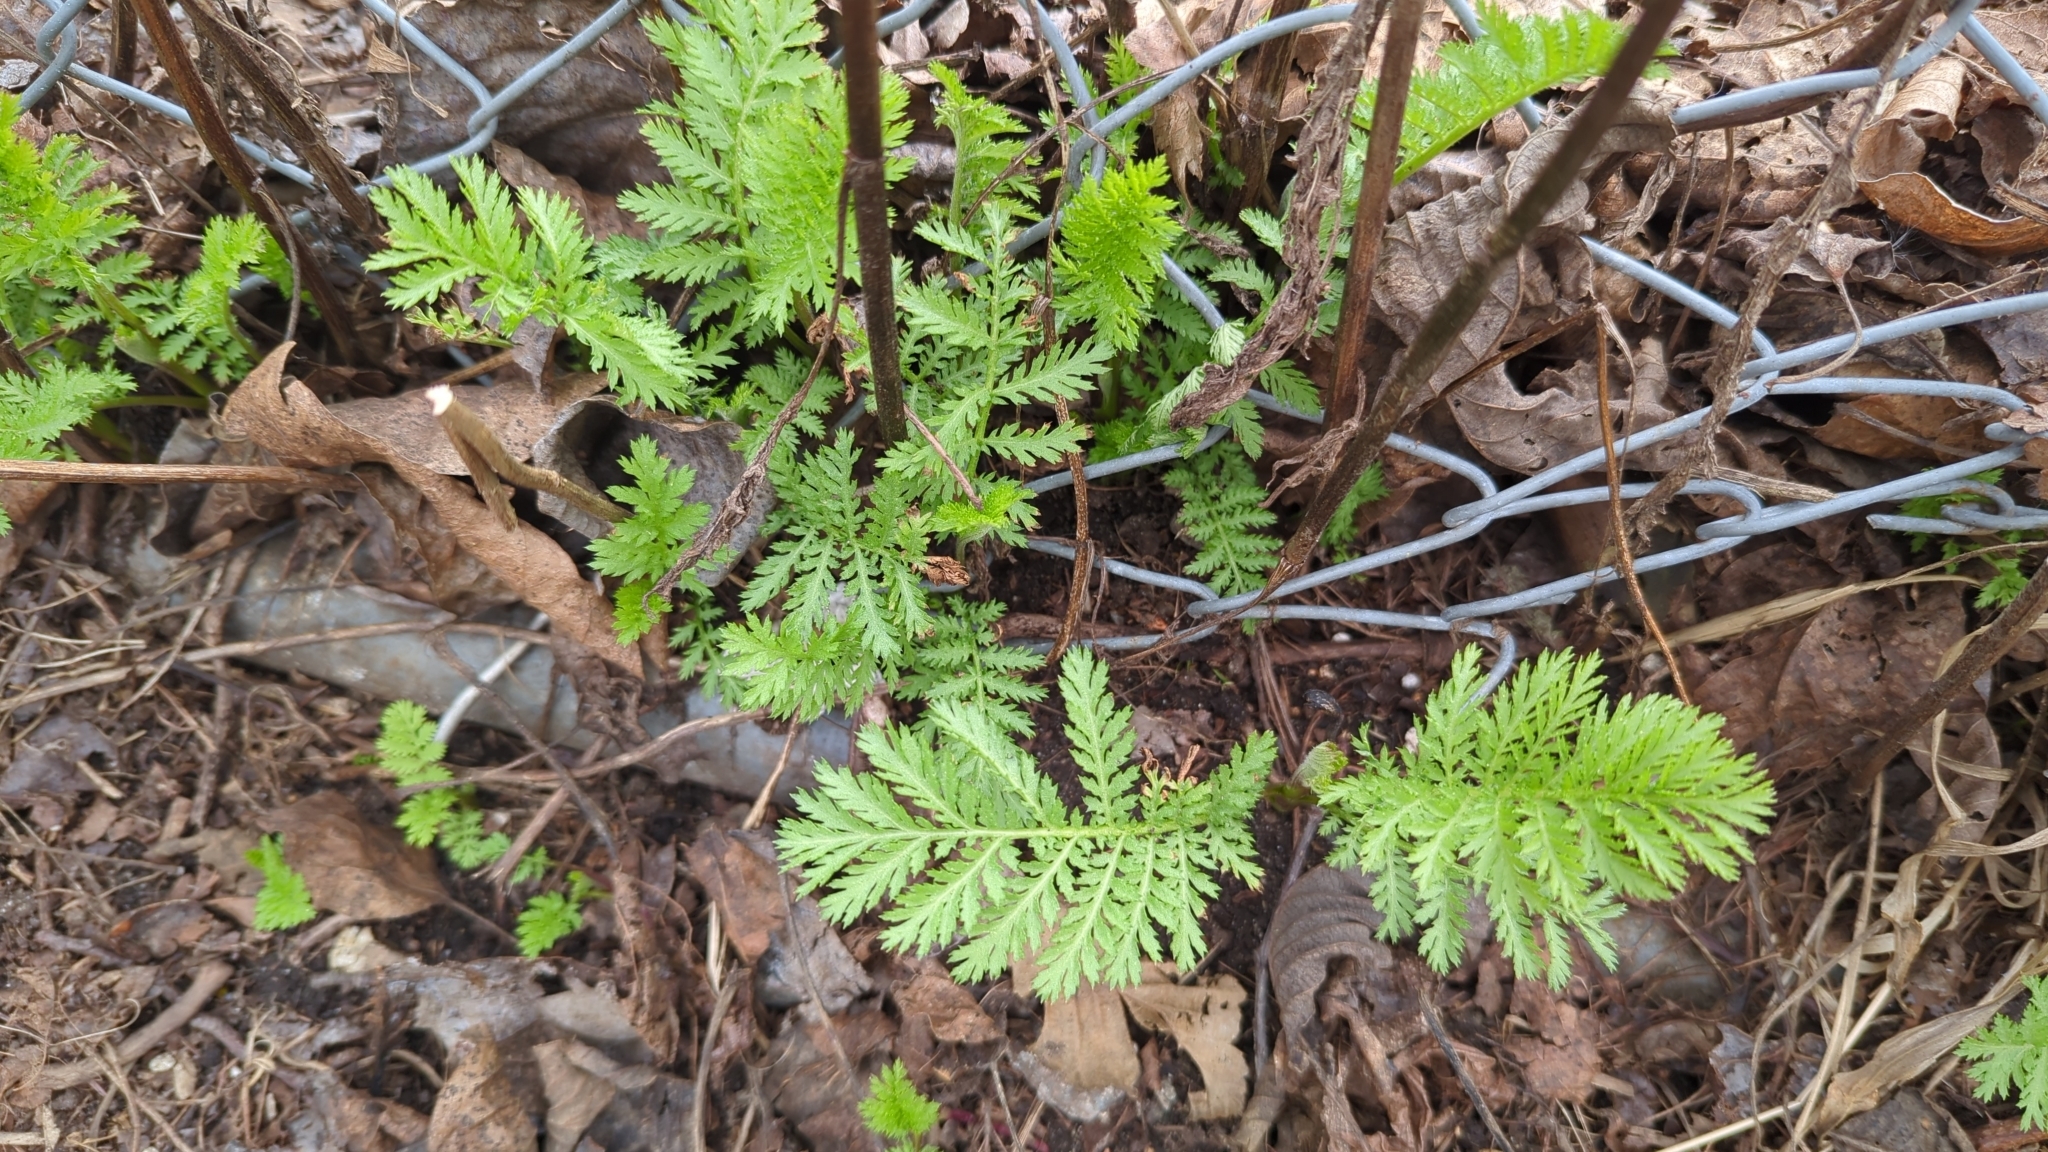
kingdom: Plantae
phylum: Tracheophyta
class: Magnoliopsida
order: Asterales
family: Asteraceae
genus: Tanacetum
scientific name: Tanacetum vulgare
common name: Common tansy
